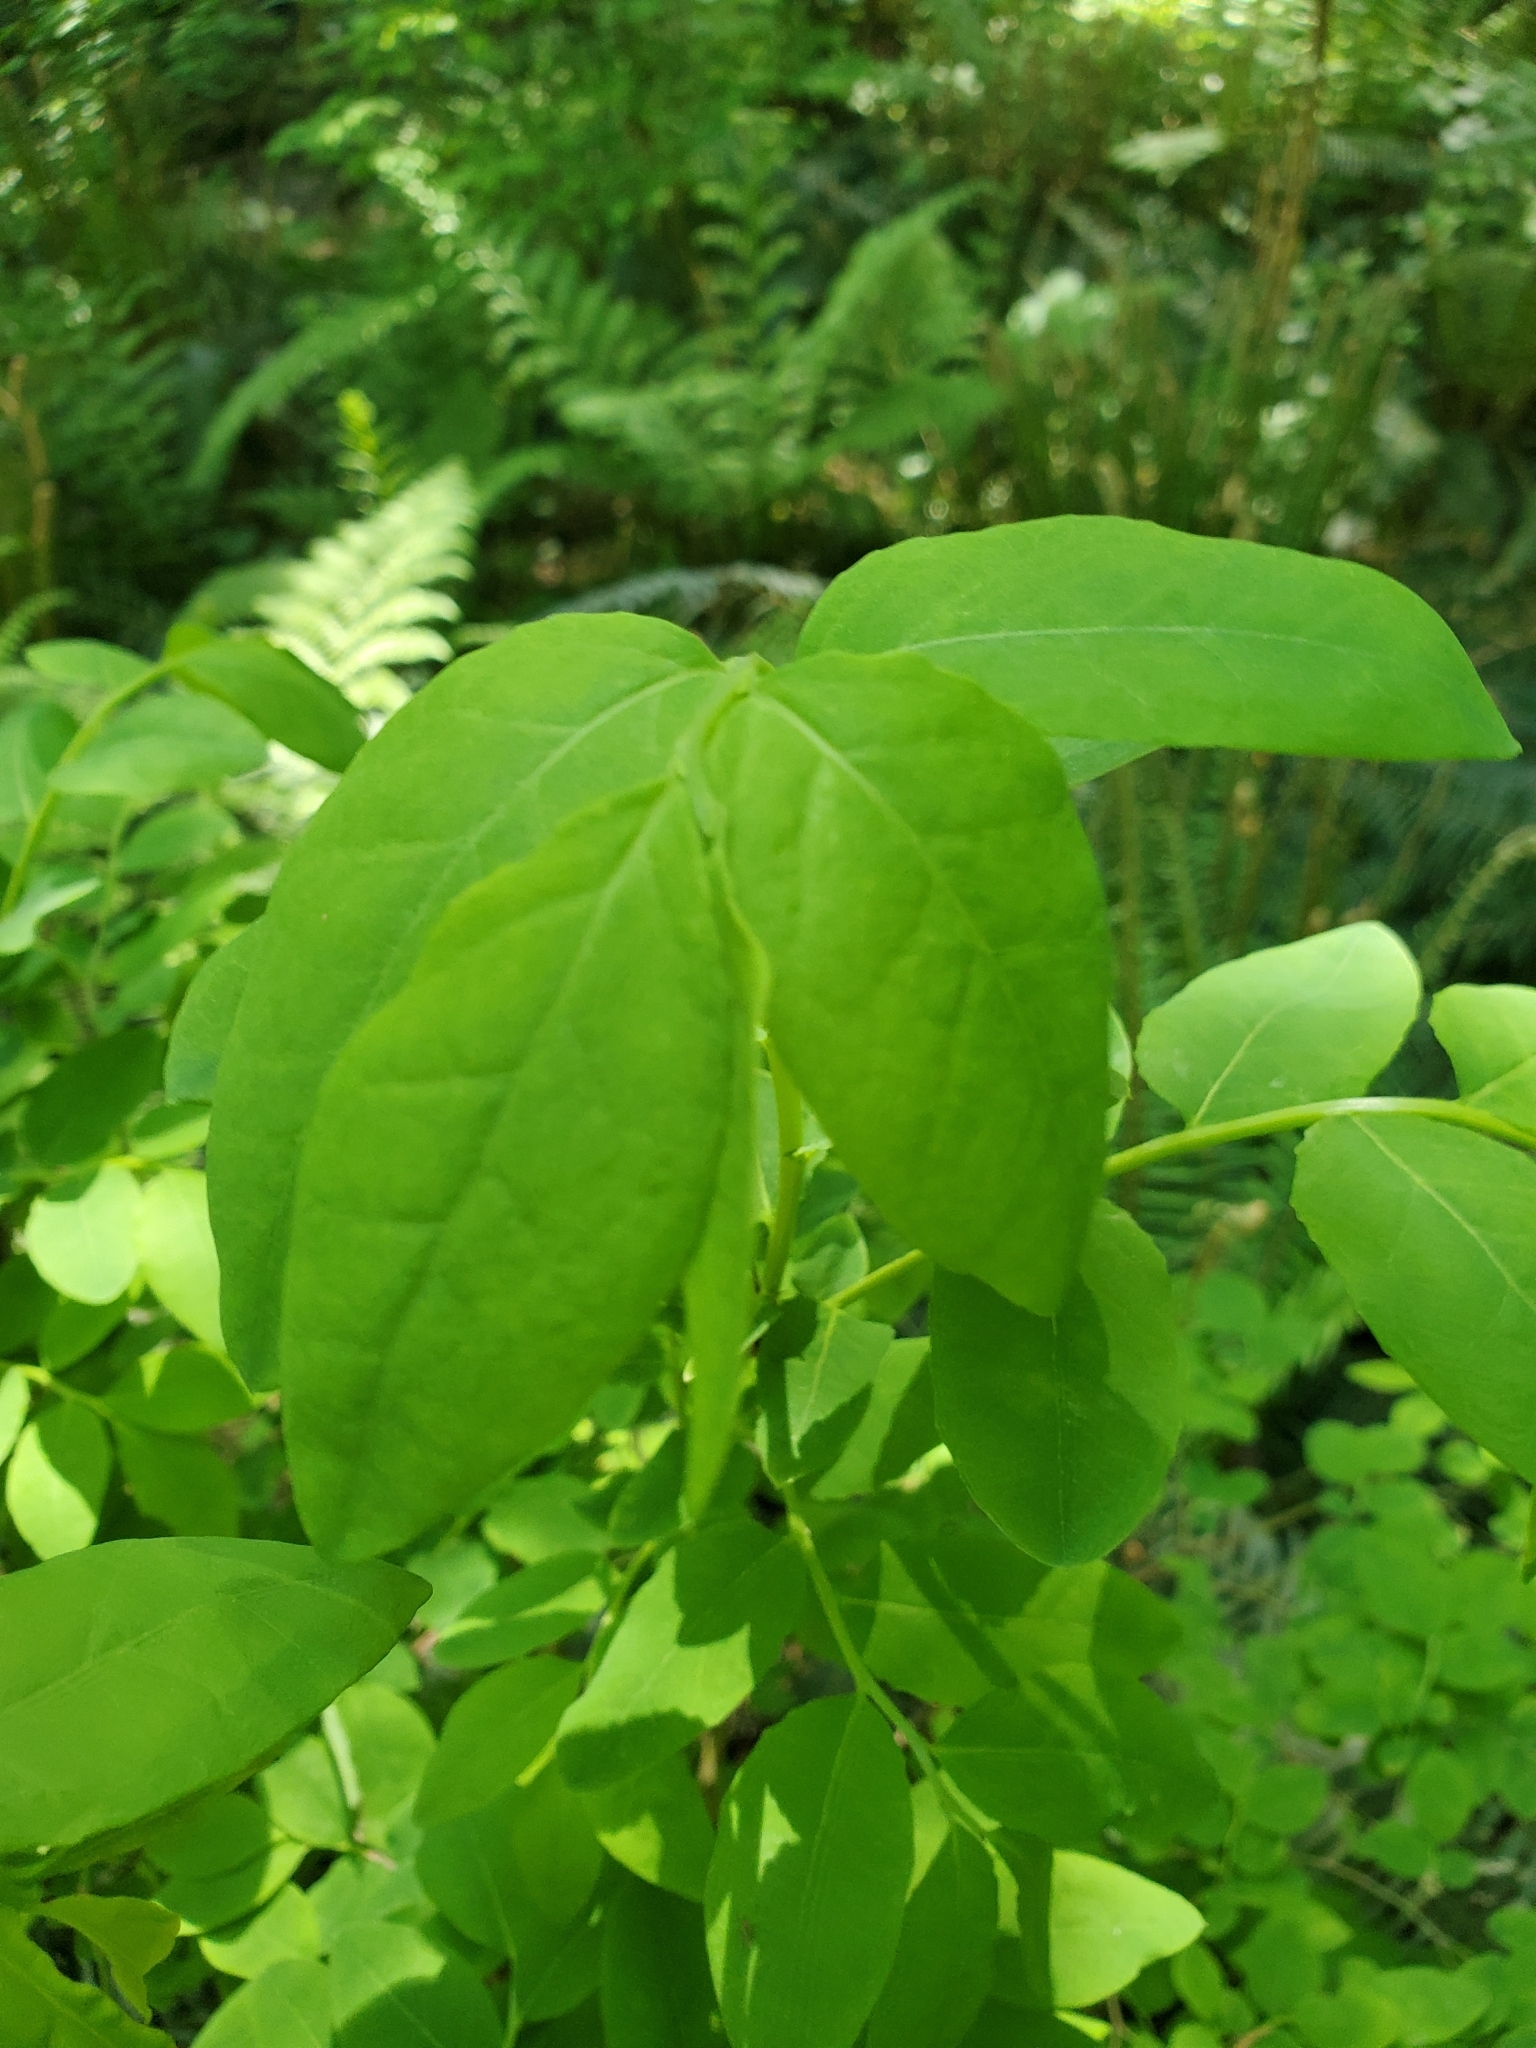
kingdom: Plantae
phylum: Tracheophyta
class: Magnoliopsida
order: Ericales
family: Ericaceae
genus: Vaccinium
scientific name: Vaccinium ovalifolium
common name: Early blueberry
